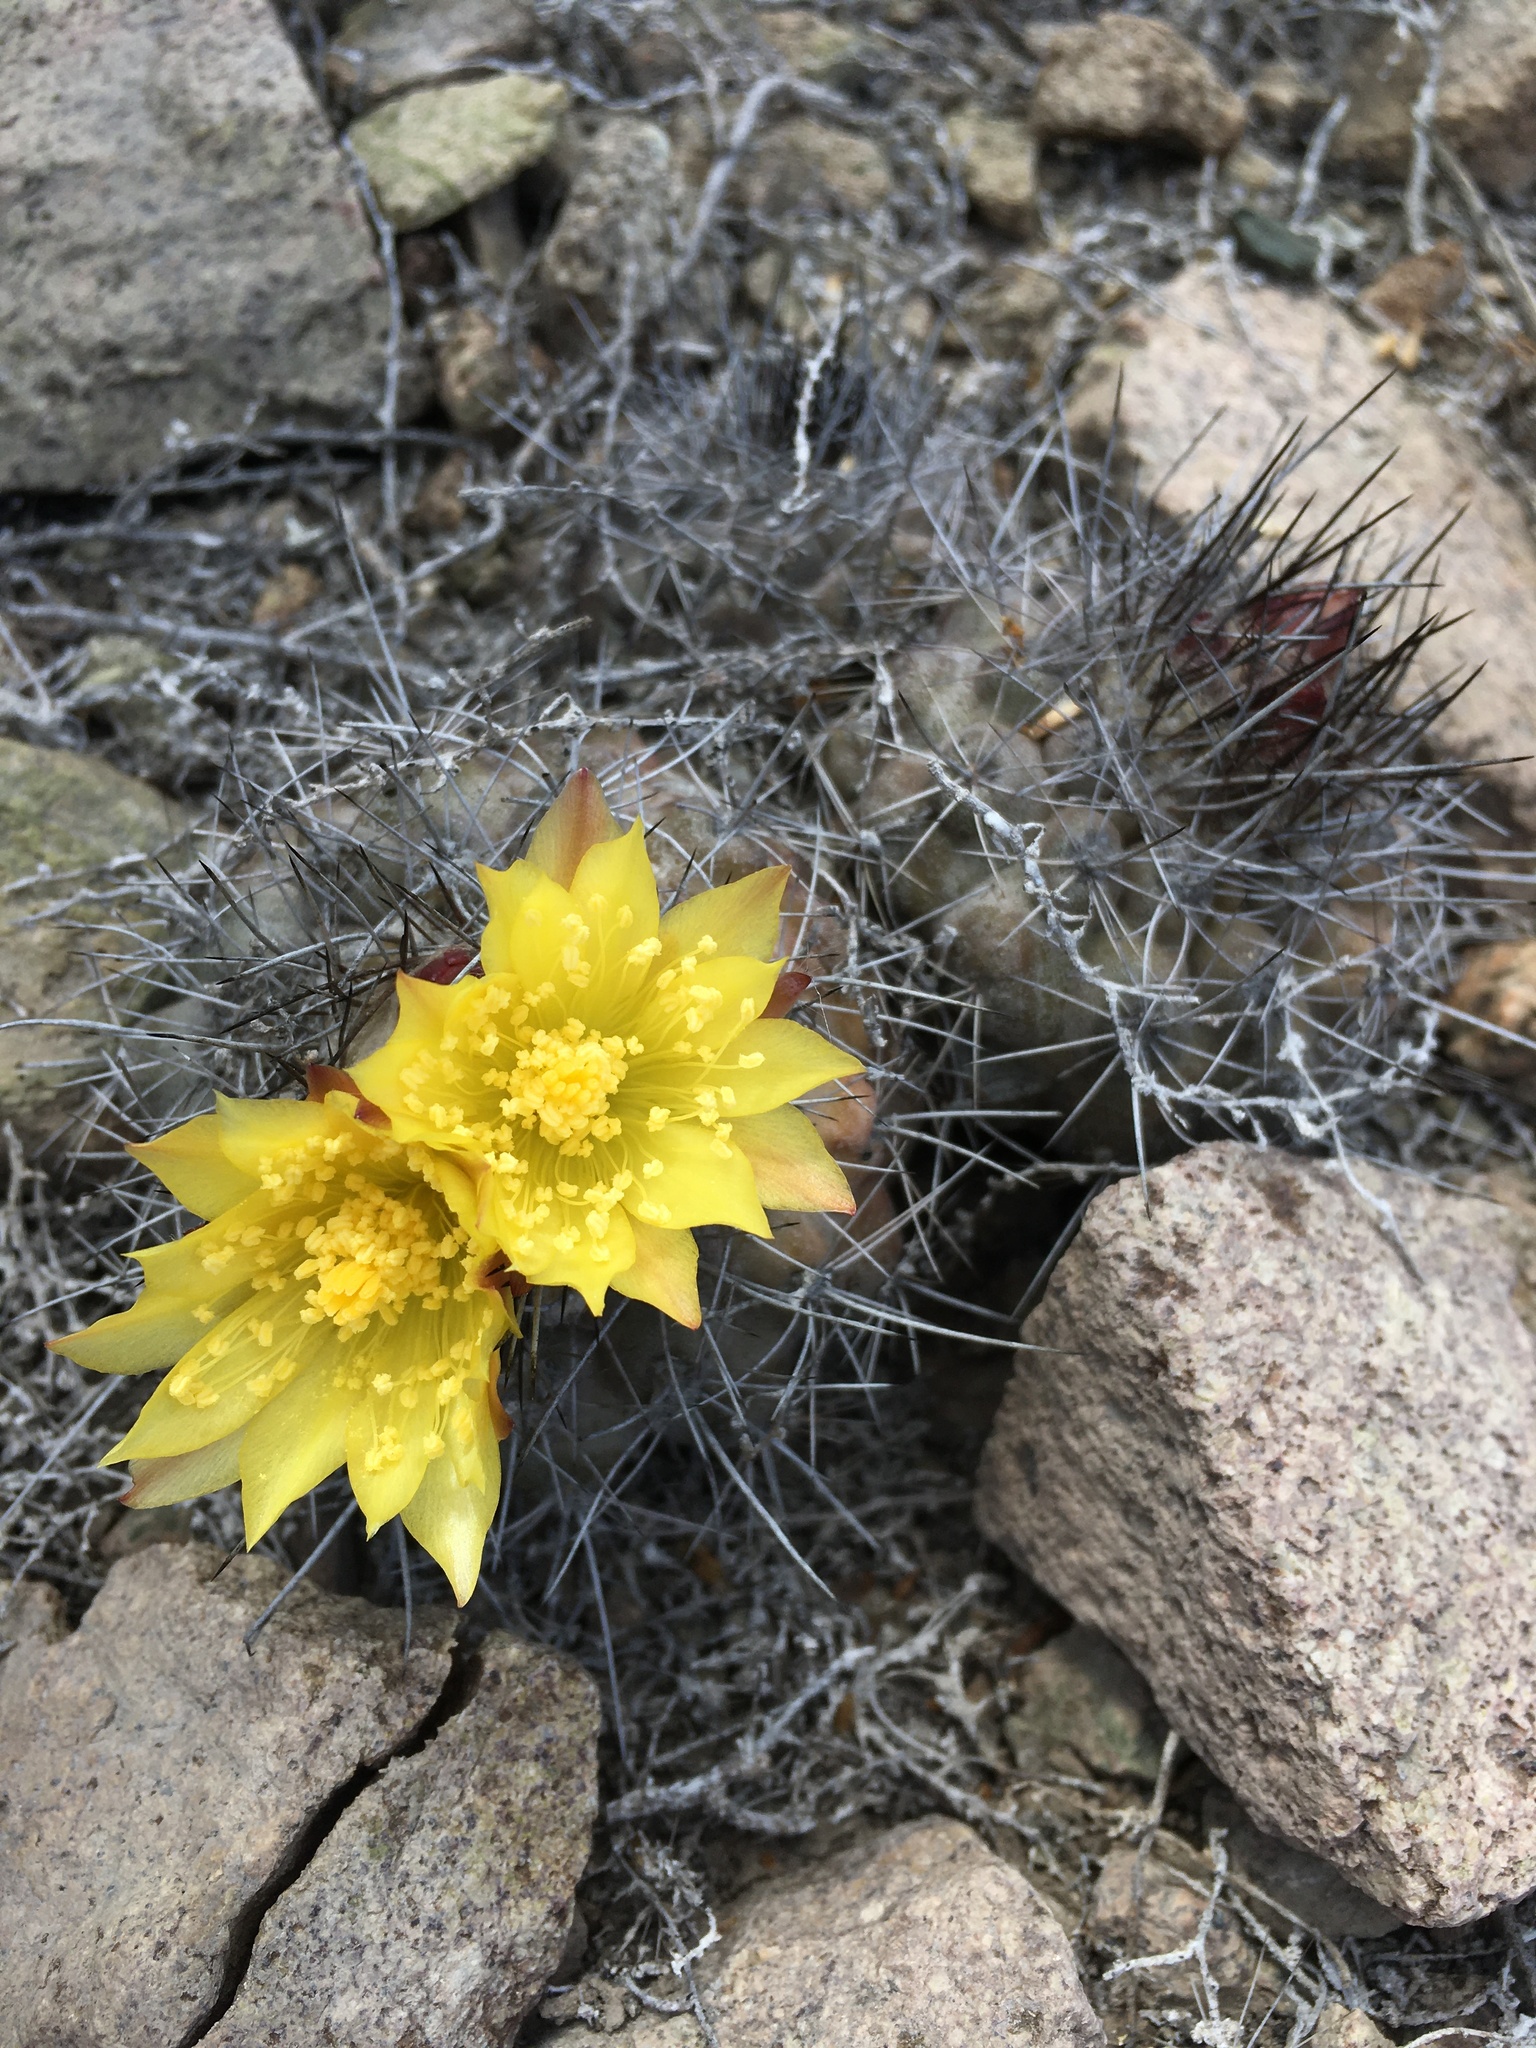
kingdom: Plantae
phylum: Tracheophyta
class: Magnoliopsida
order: Caryophyllales
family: Cactaceae
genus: Copiapoa
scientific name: Copiapoa humilis
